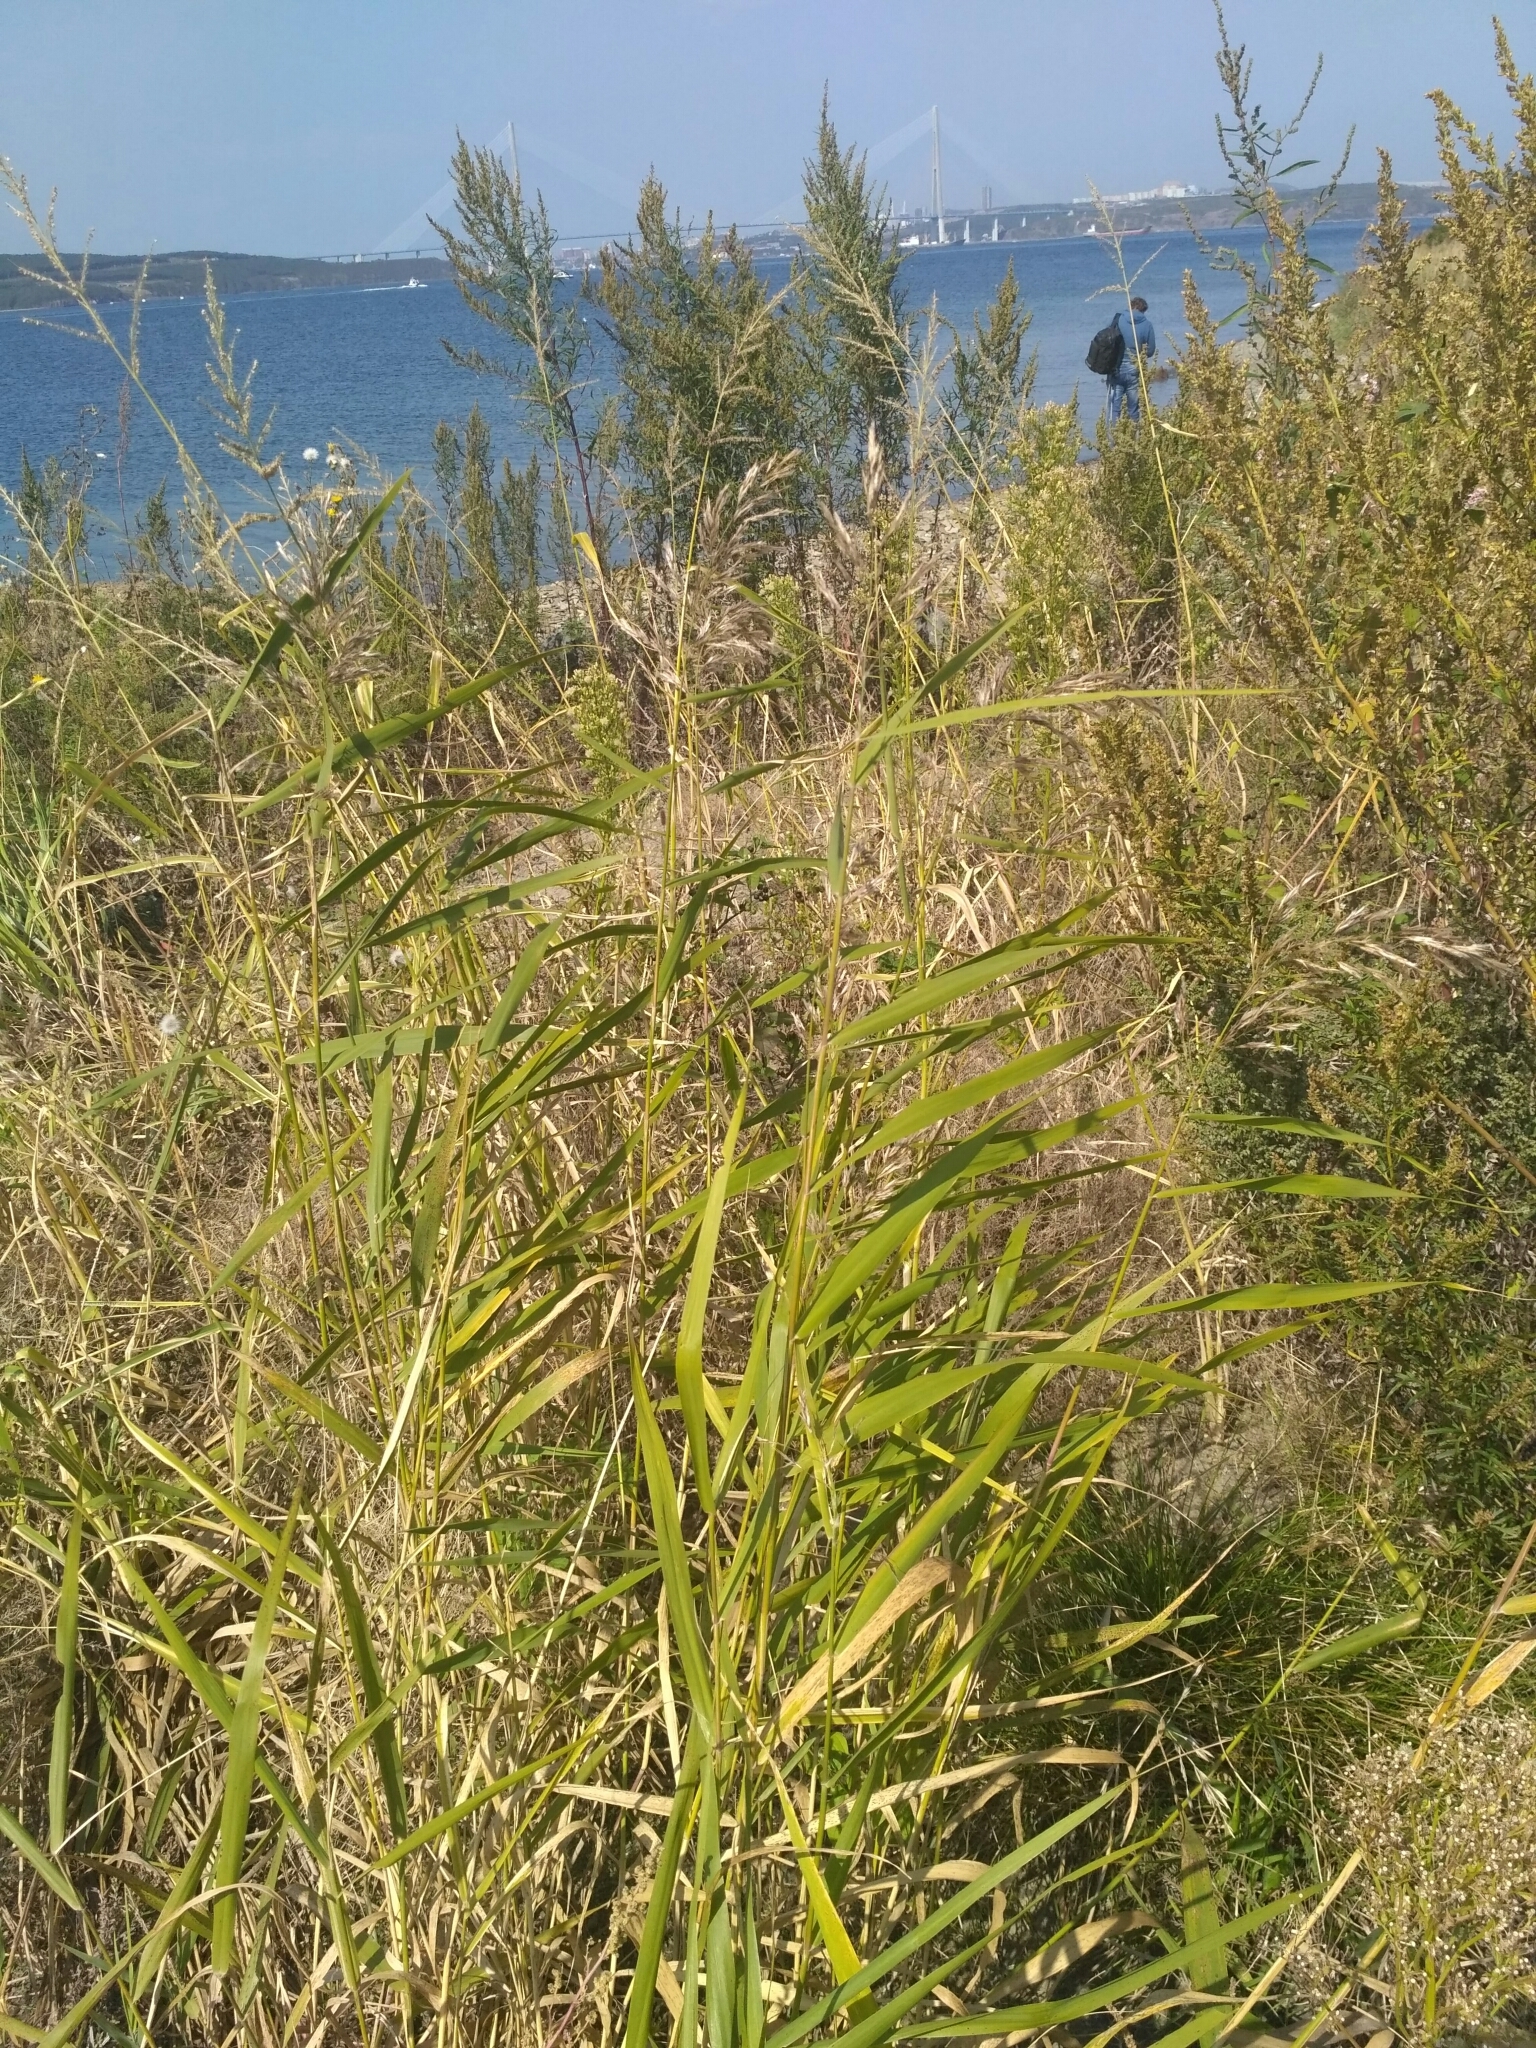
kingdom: Plantae
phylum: Tracheophyta
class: Liliopsida
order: Poales
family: Poaceae
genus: Phragmites
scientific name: Phragmites australis
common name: Common reed
